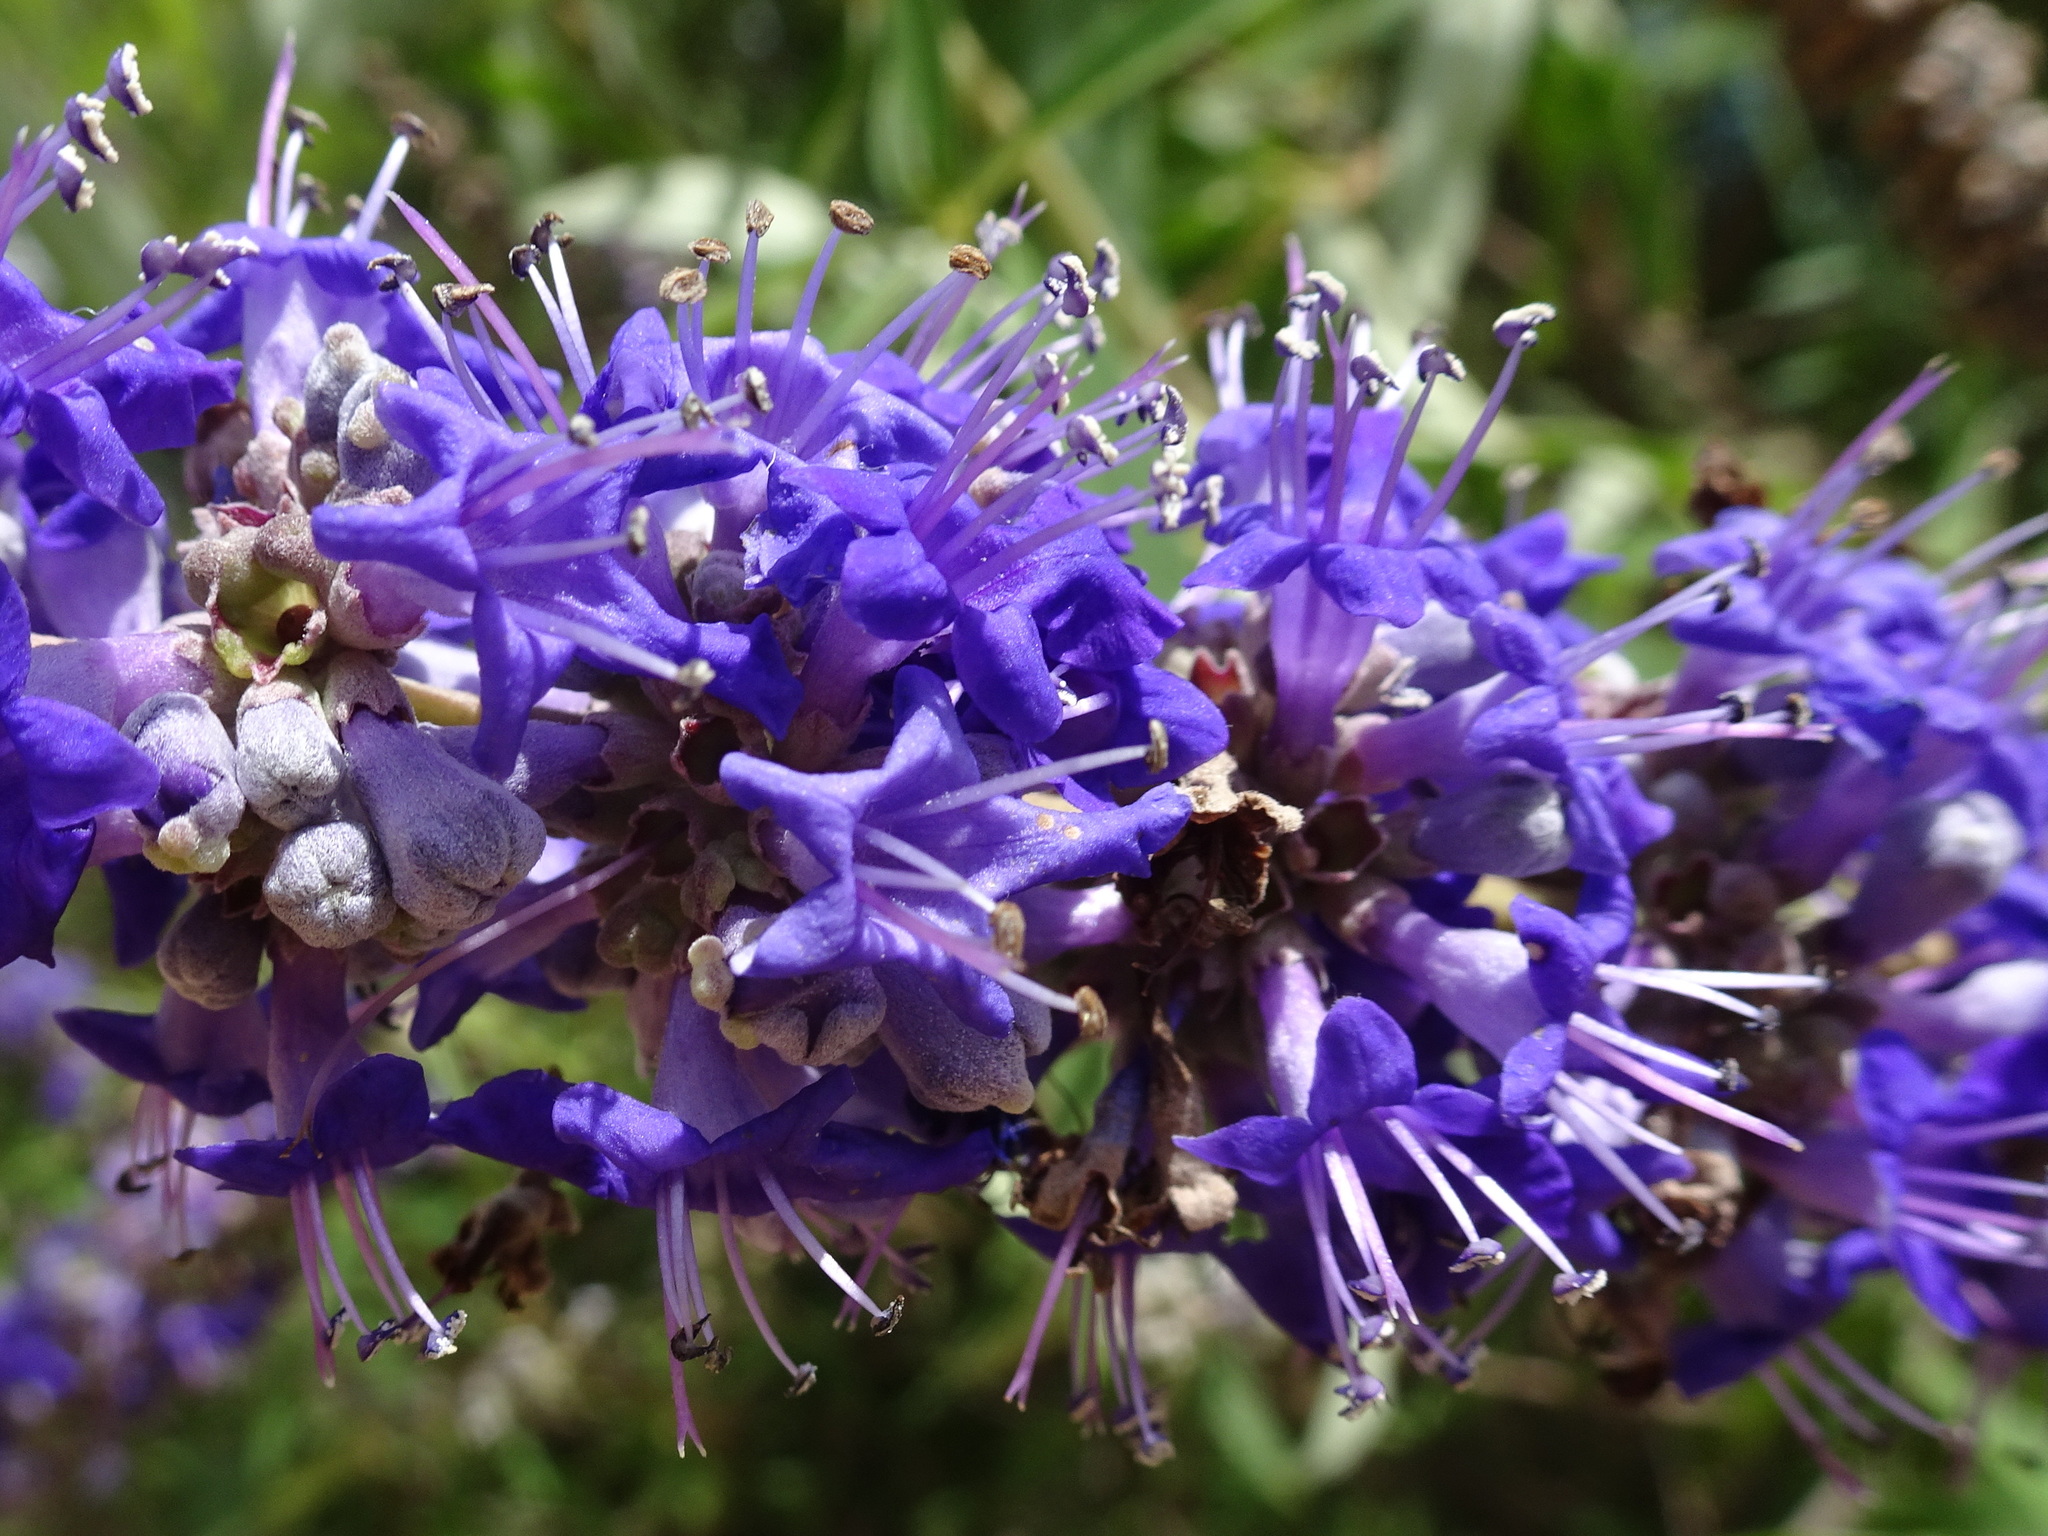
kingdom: Plantae
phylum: Tracheophyta
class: Magnoliopsida
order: Lamiales
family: Lamiaceae
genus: Vitex
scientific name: Vitex agnus-castus
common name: Chasteberry
